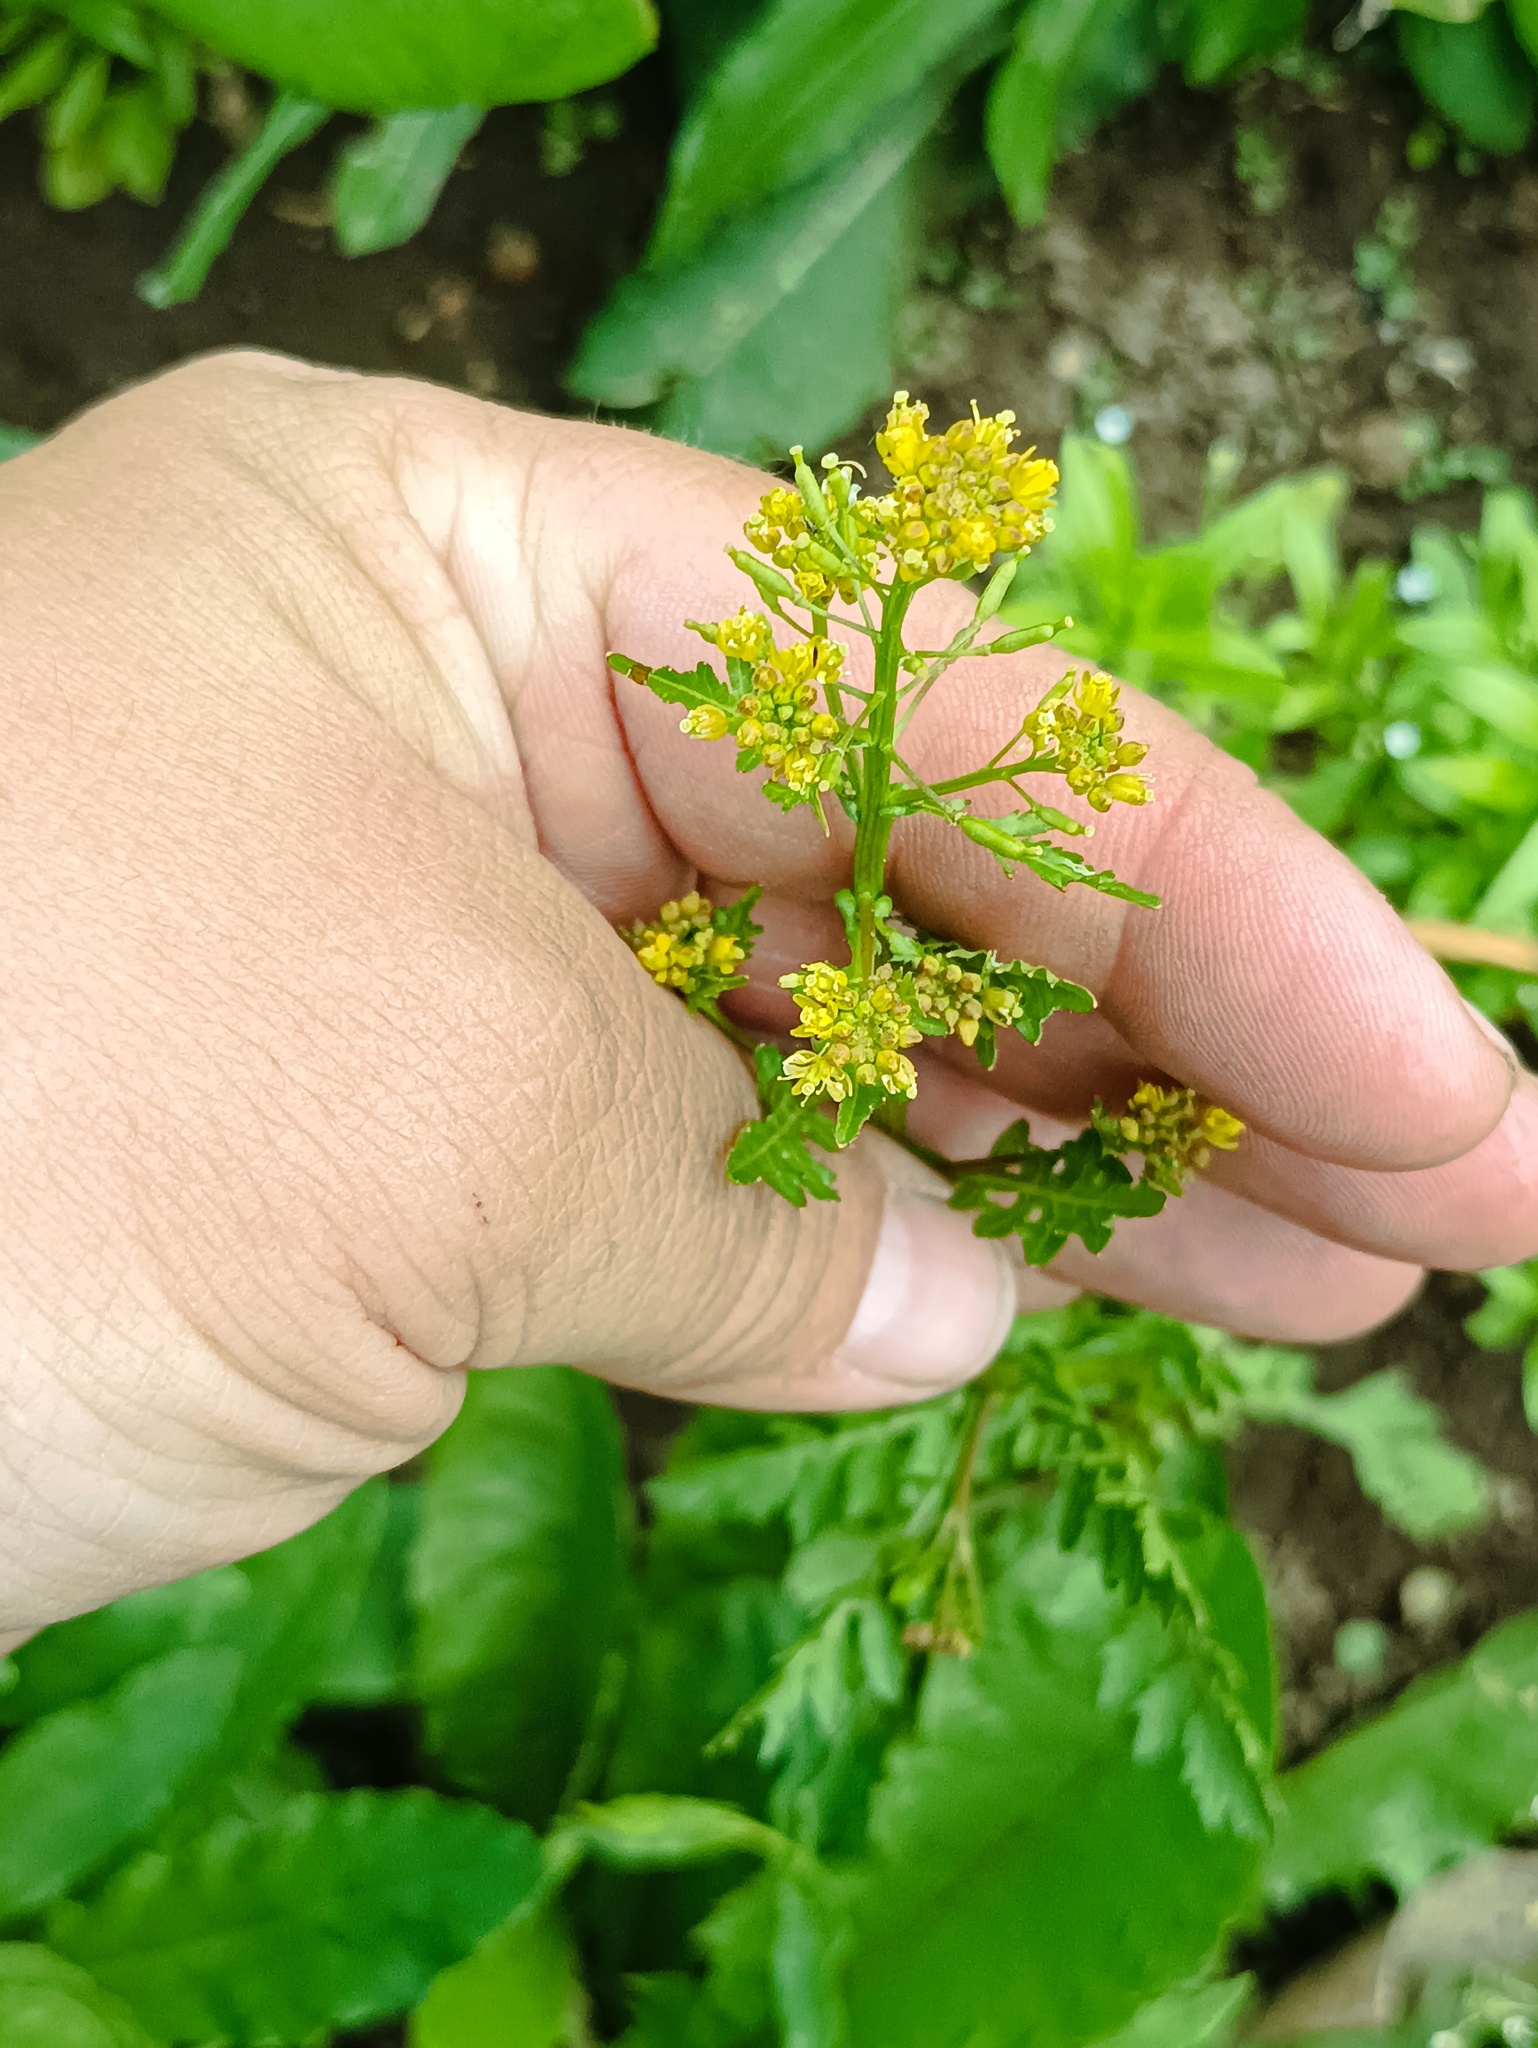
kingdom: Plantae
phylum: Tracheophyta
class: Magnoliopsida
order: Brassicales
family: Brassicaceae
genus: Rorippa
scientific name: Rorippa palustris
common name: Marsh yellow-cress
